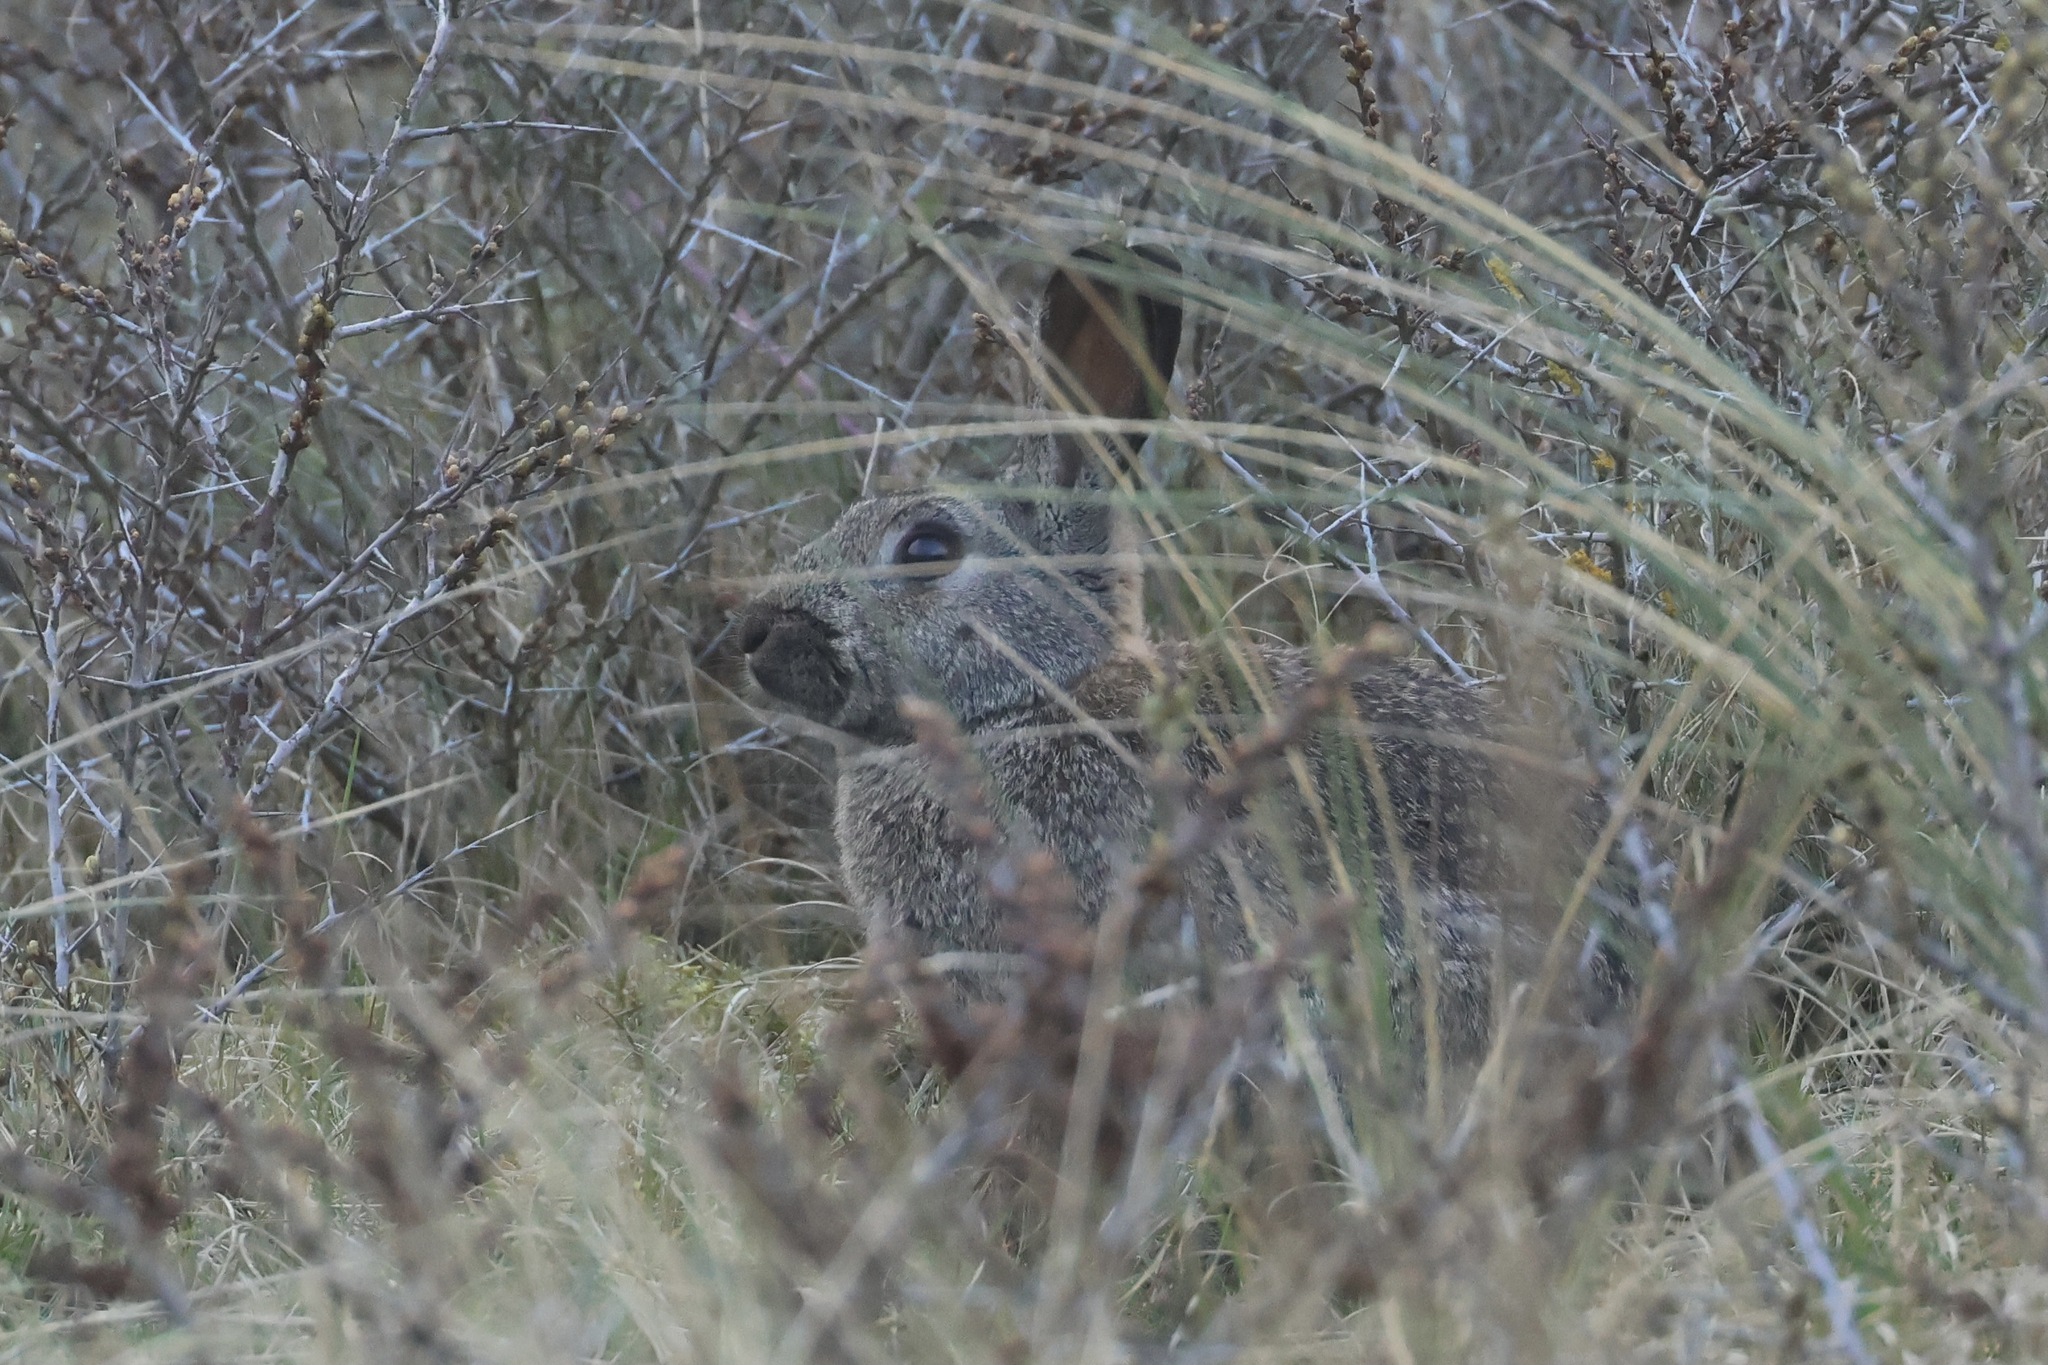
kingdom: Animalia
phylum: Chordata
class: Mammalia
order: Lagomorpha
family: Leporidae
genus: Oryctolagus
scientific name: Oryctolagus cuniculus
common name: European rabbit
